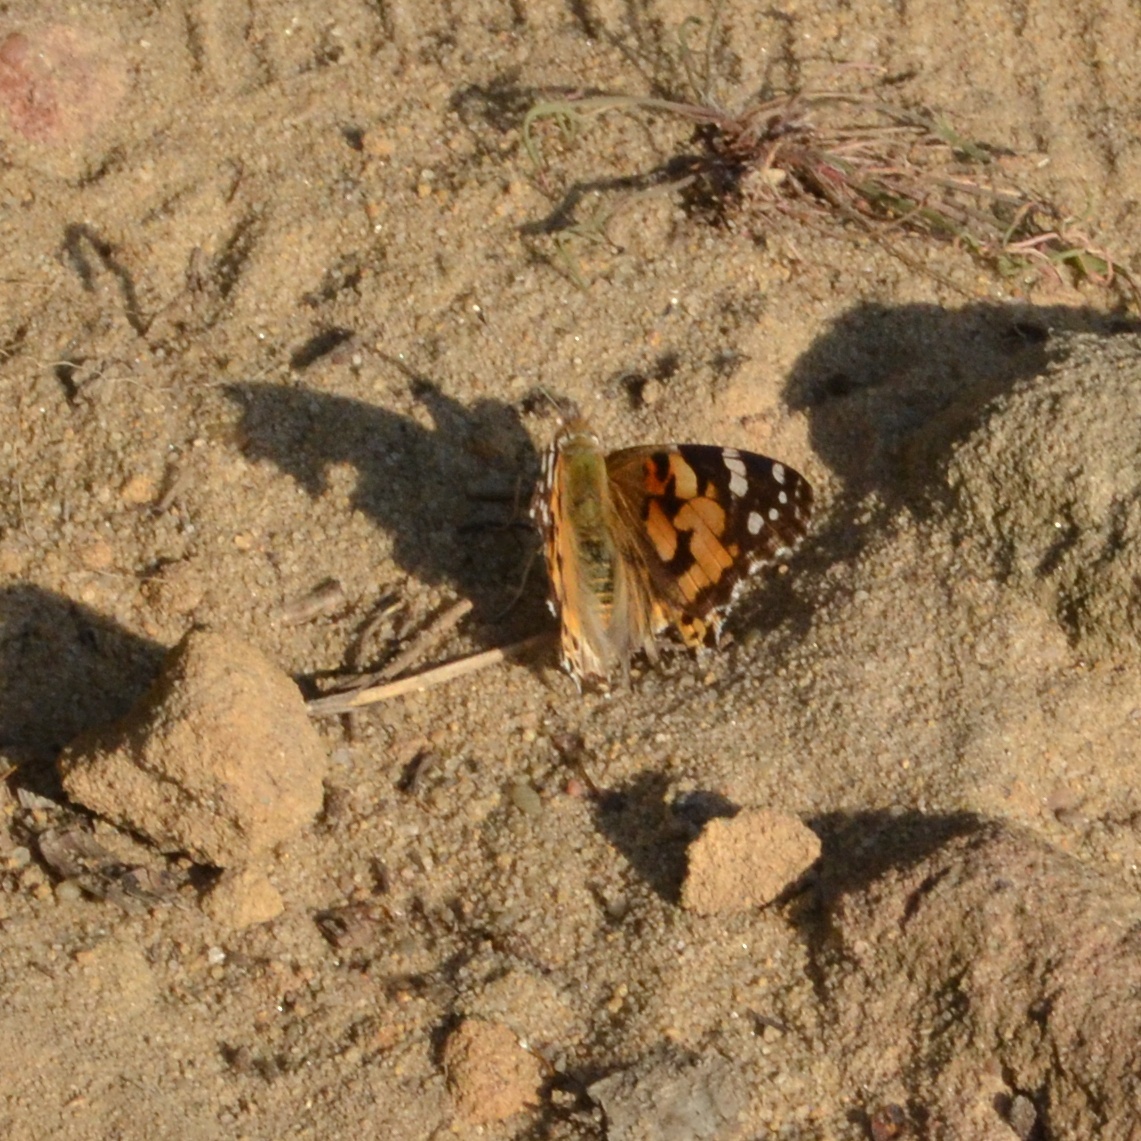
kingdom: Animalia
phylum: Arthropoda
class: Insecta
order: Lepidoptera
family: Nymphalidae
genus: Vanessa
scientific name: Vanessa cardui
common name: Painted lady
